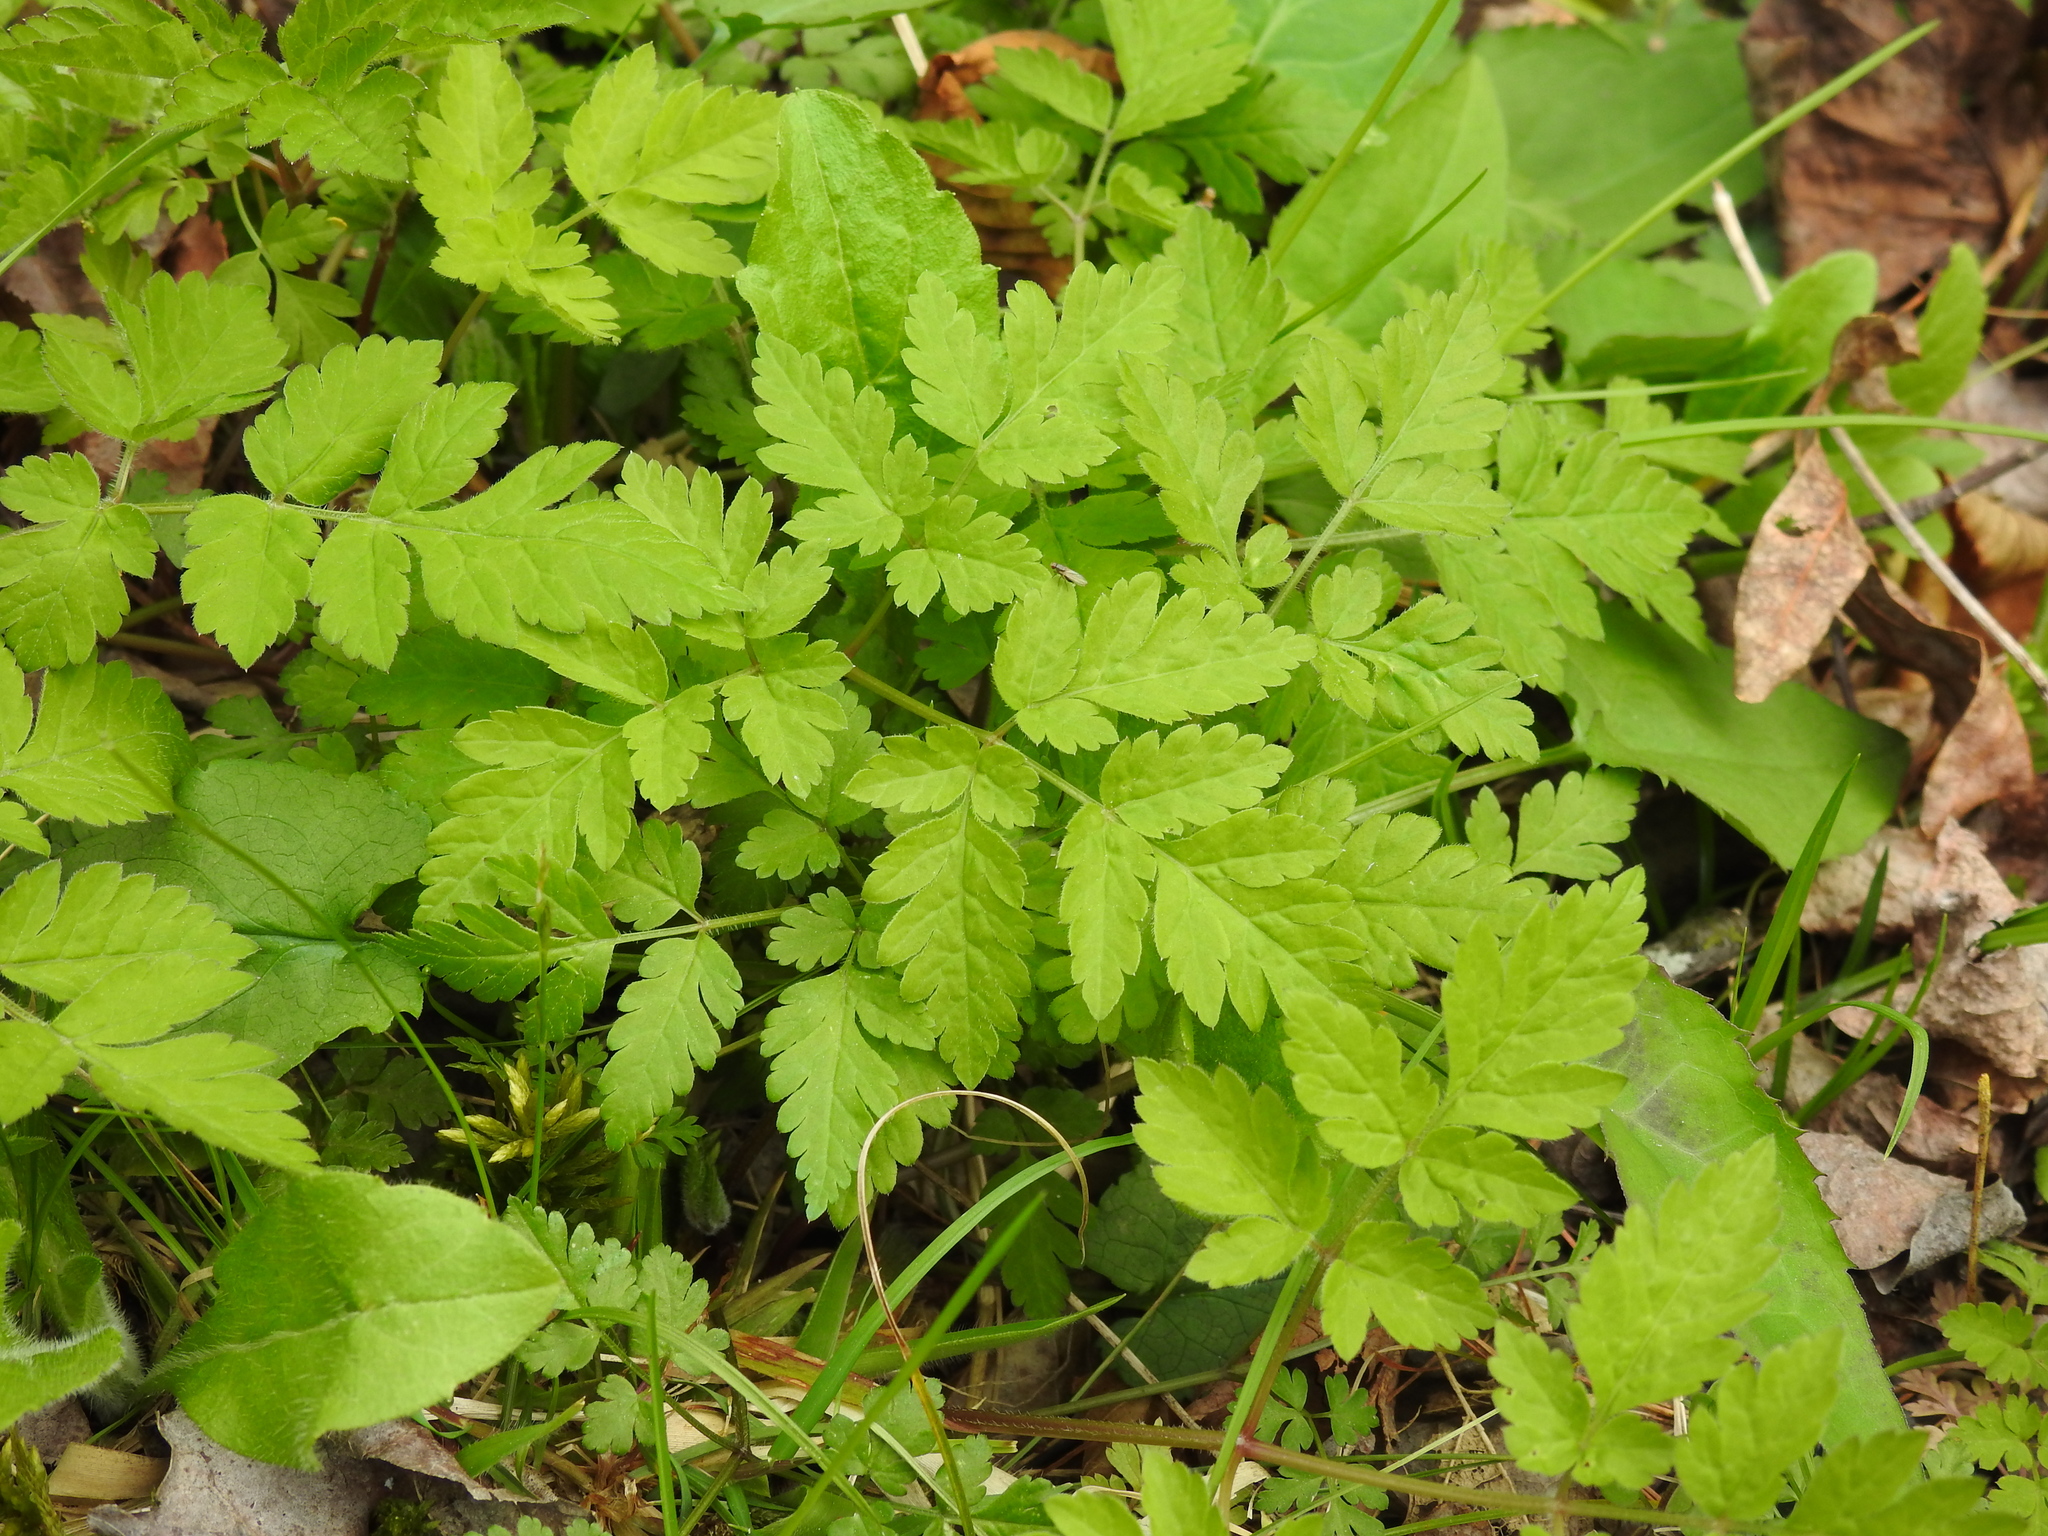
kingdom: Plantae
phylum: Tracheophyta
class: Magnoliopsida
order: Apiales
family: Apiaceae
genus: Osmorhiza
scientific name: Osmorhiza claytonii
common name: Hairy sweet cicely
